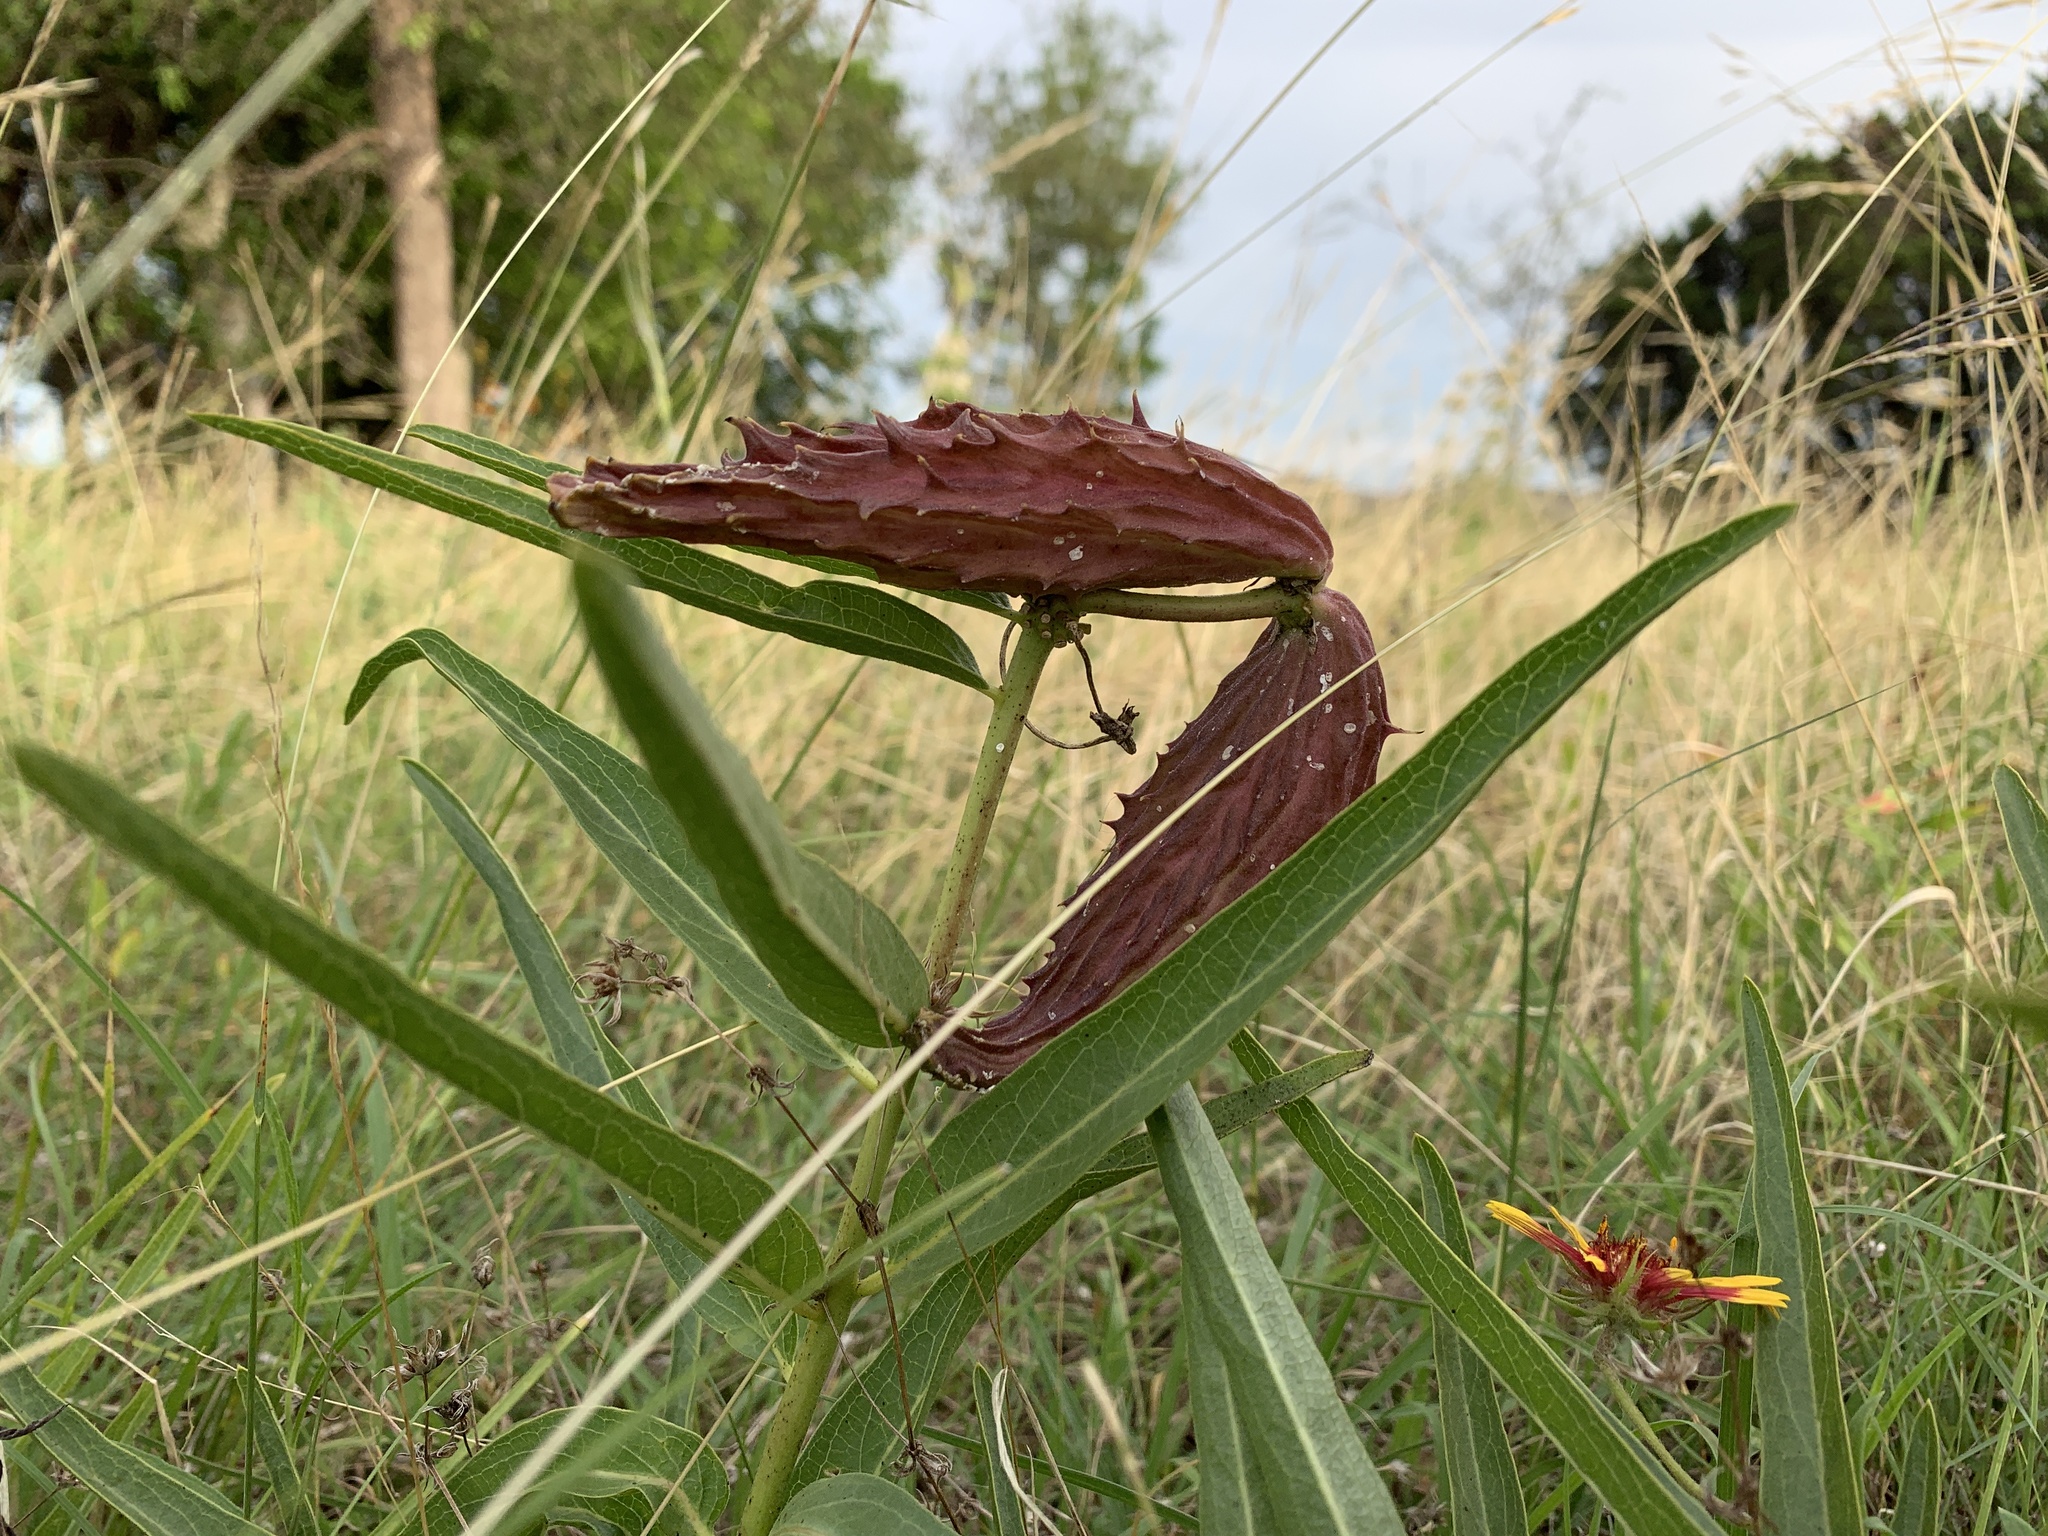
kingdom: Plantae
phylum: Tracheophyta
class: Magnoliopsida
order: Gentianales
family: Apocynaceae
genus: Asclepias
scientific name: Asclepias asperula
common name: Antelope horns
